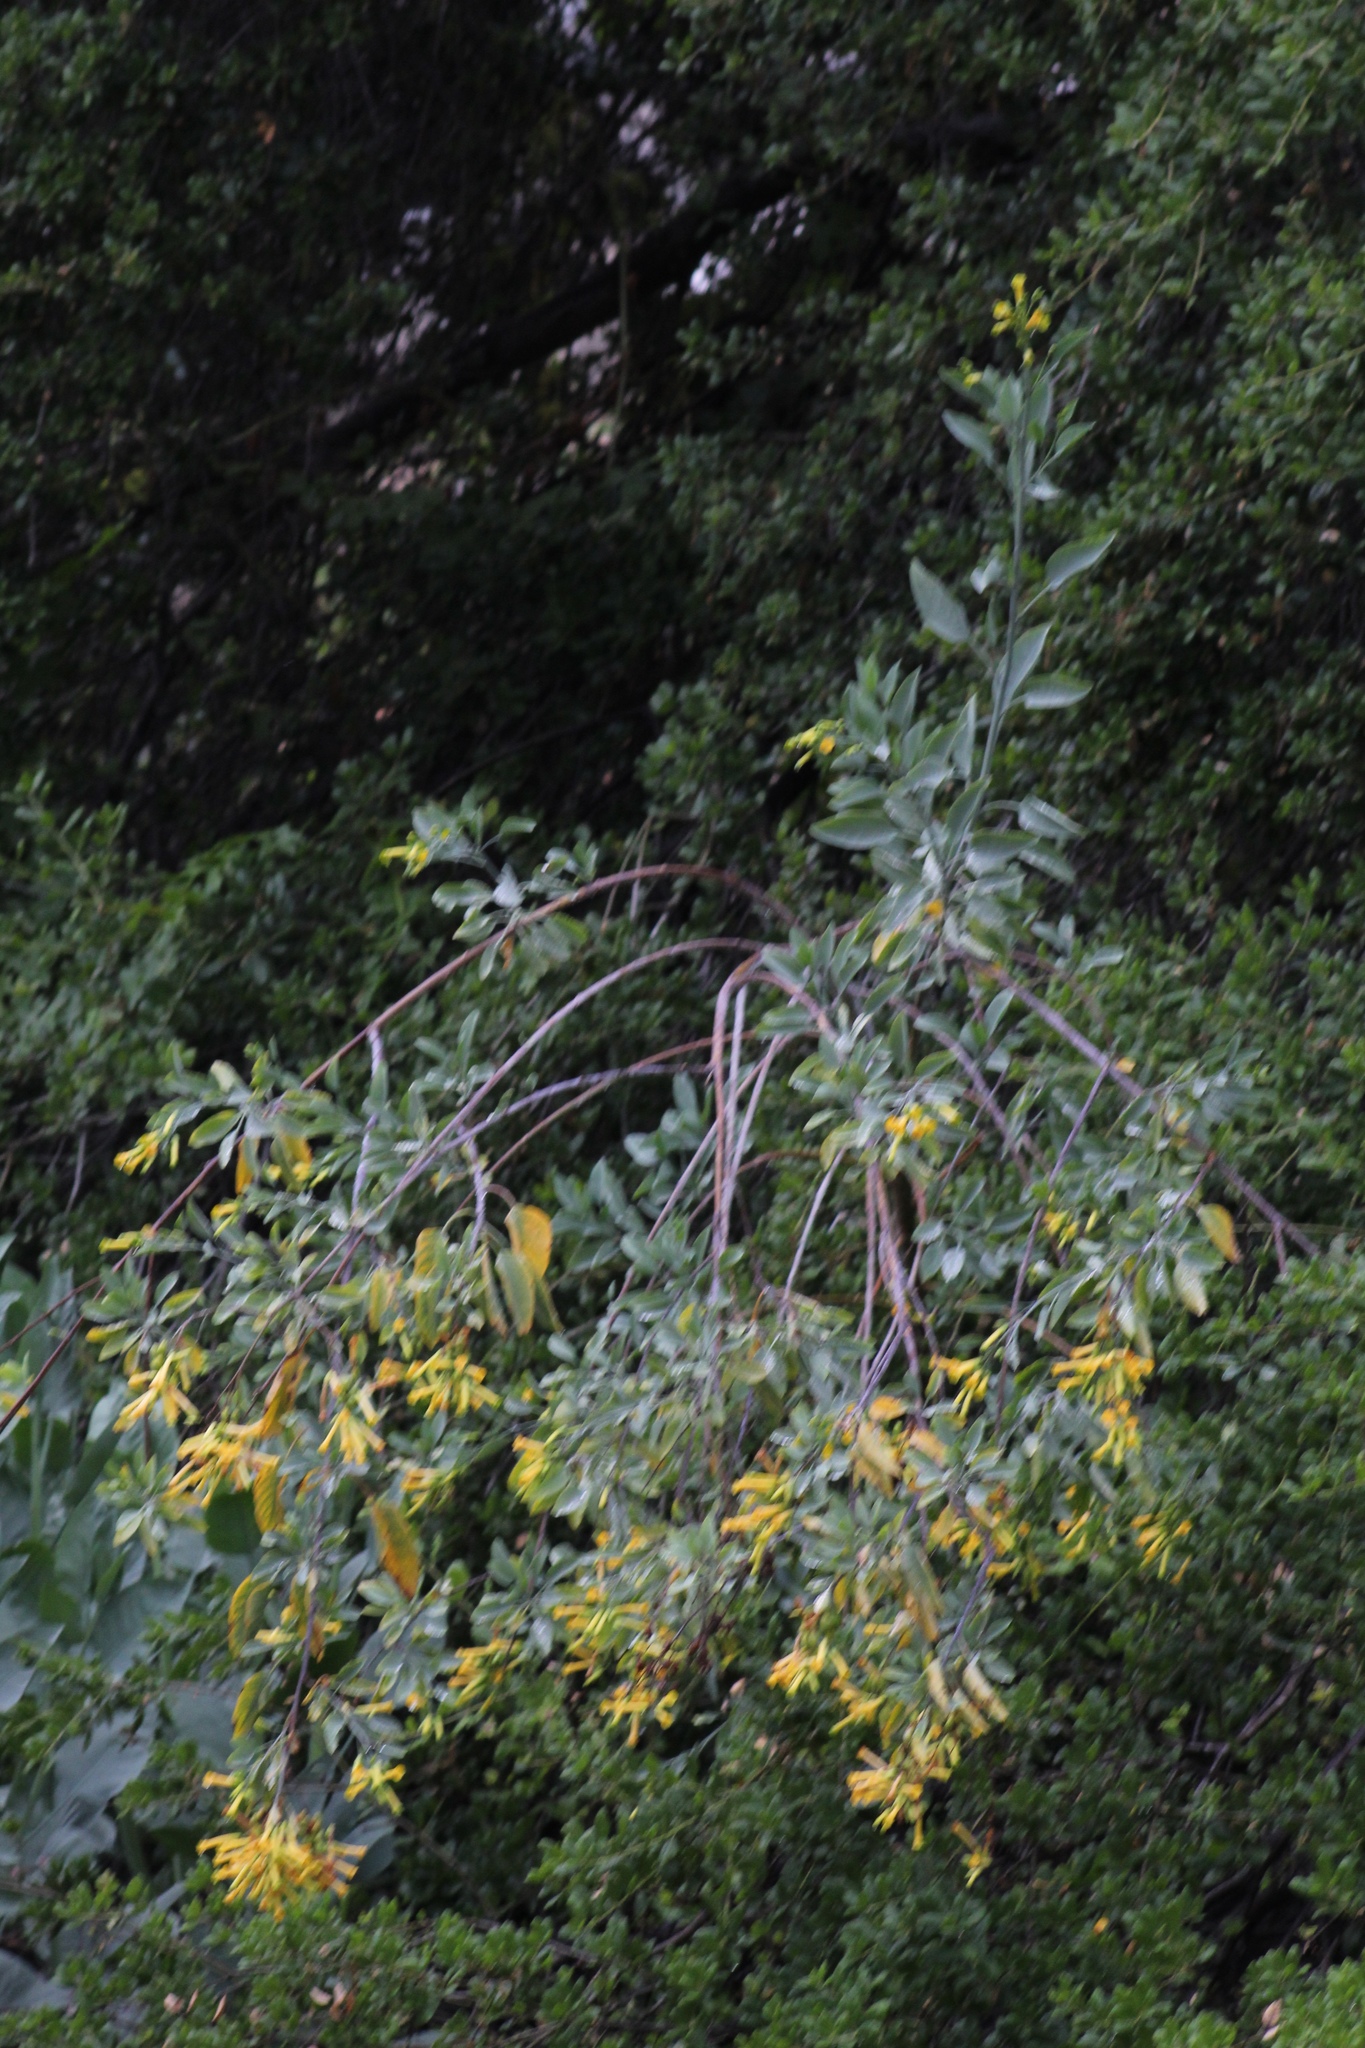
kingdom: Plantae
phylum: Tracheophyta
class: Magnoliopsida
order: Solanales
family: Solanaceae
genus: Nicotiana
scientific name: Nicotiana glauca
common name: Tree tobacco
